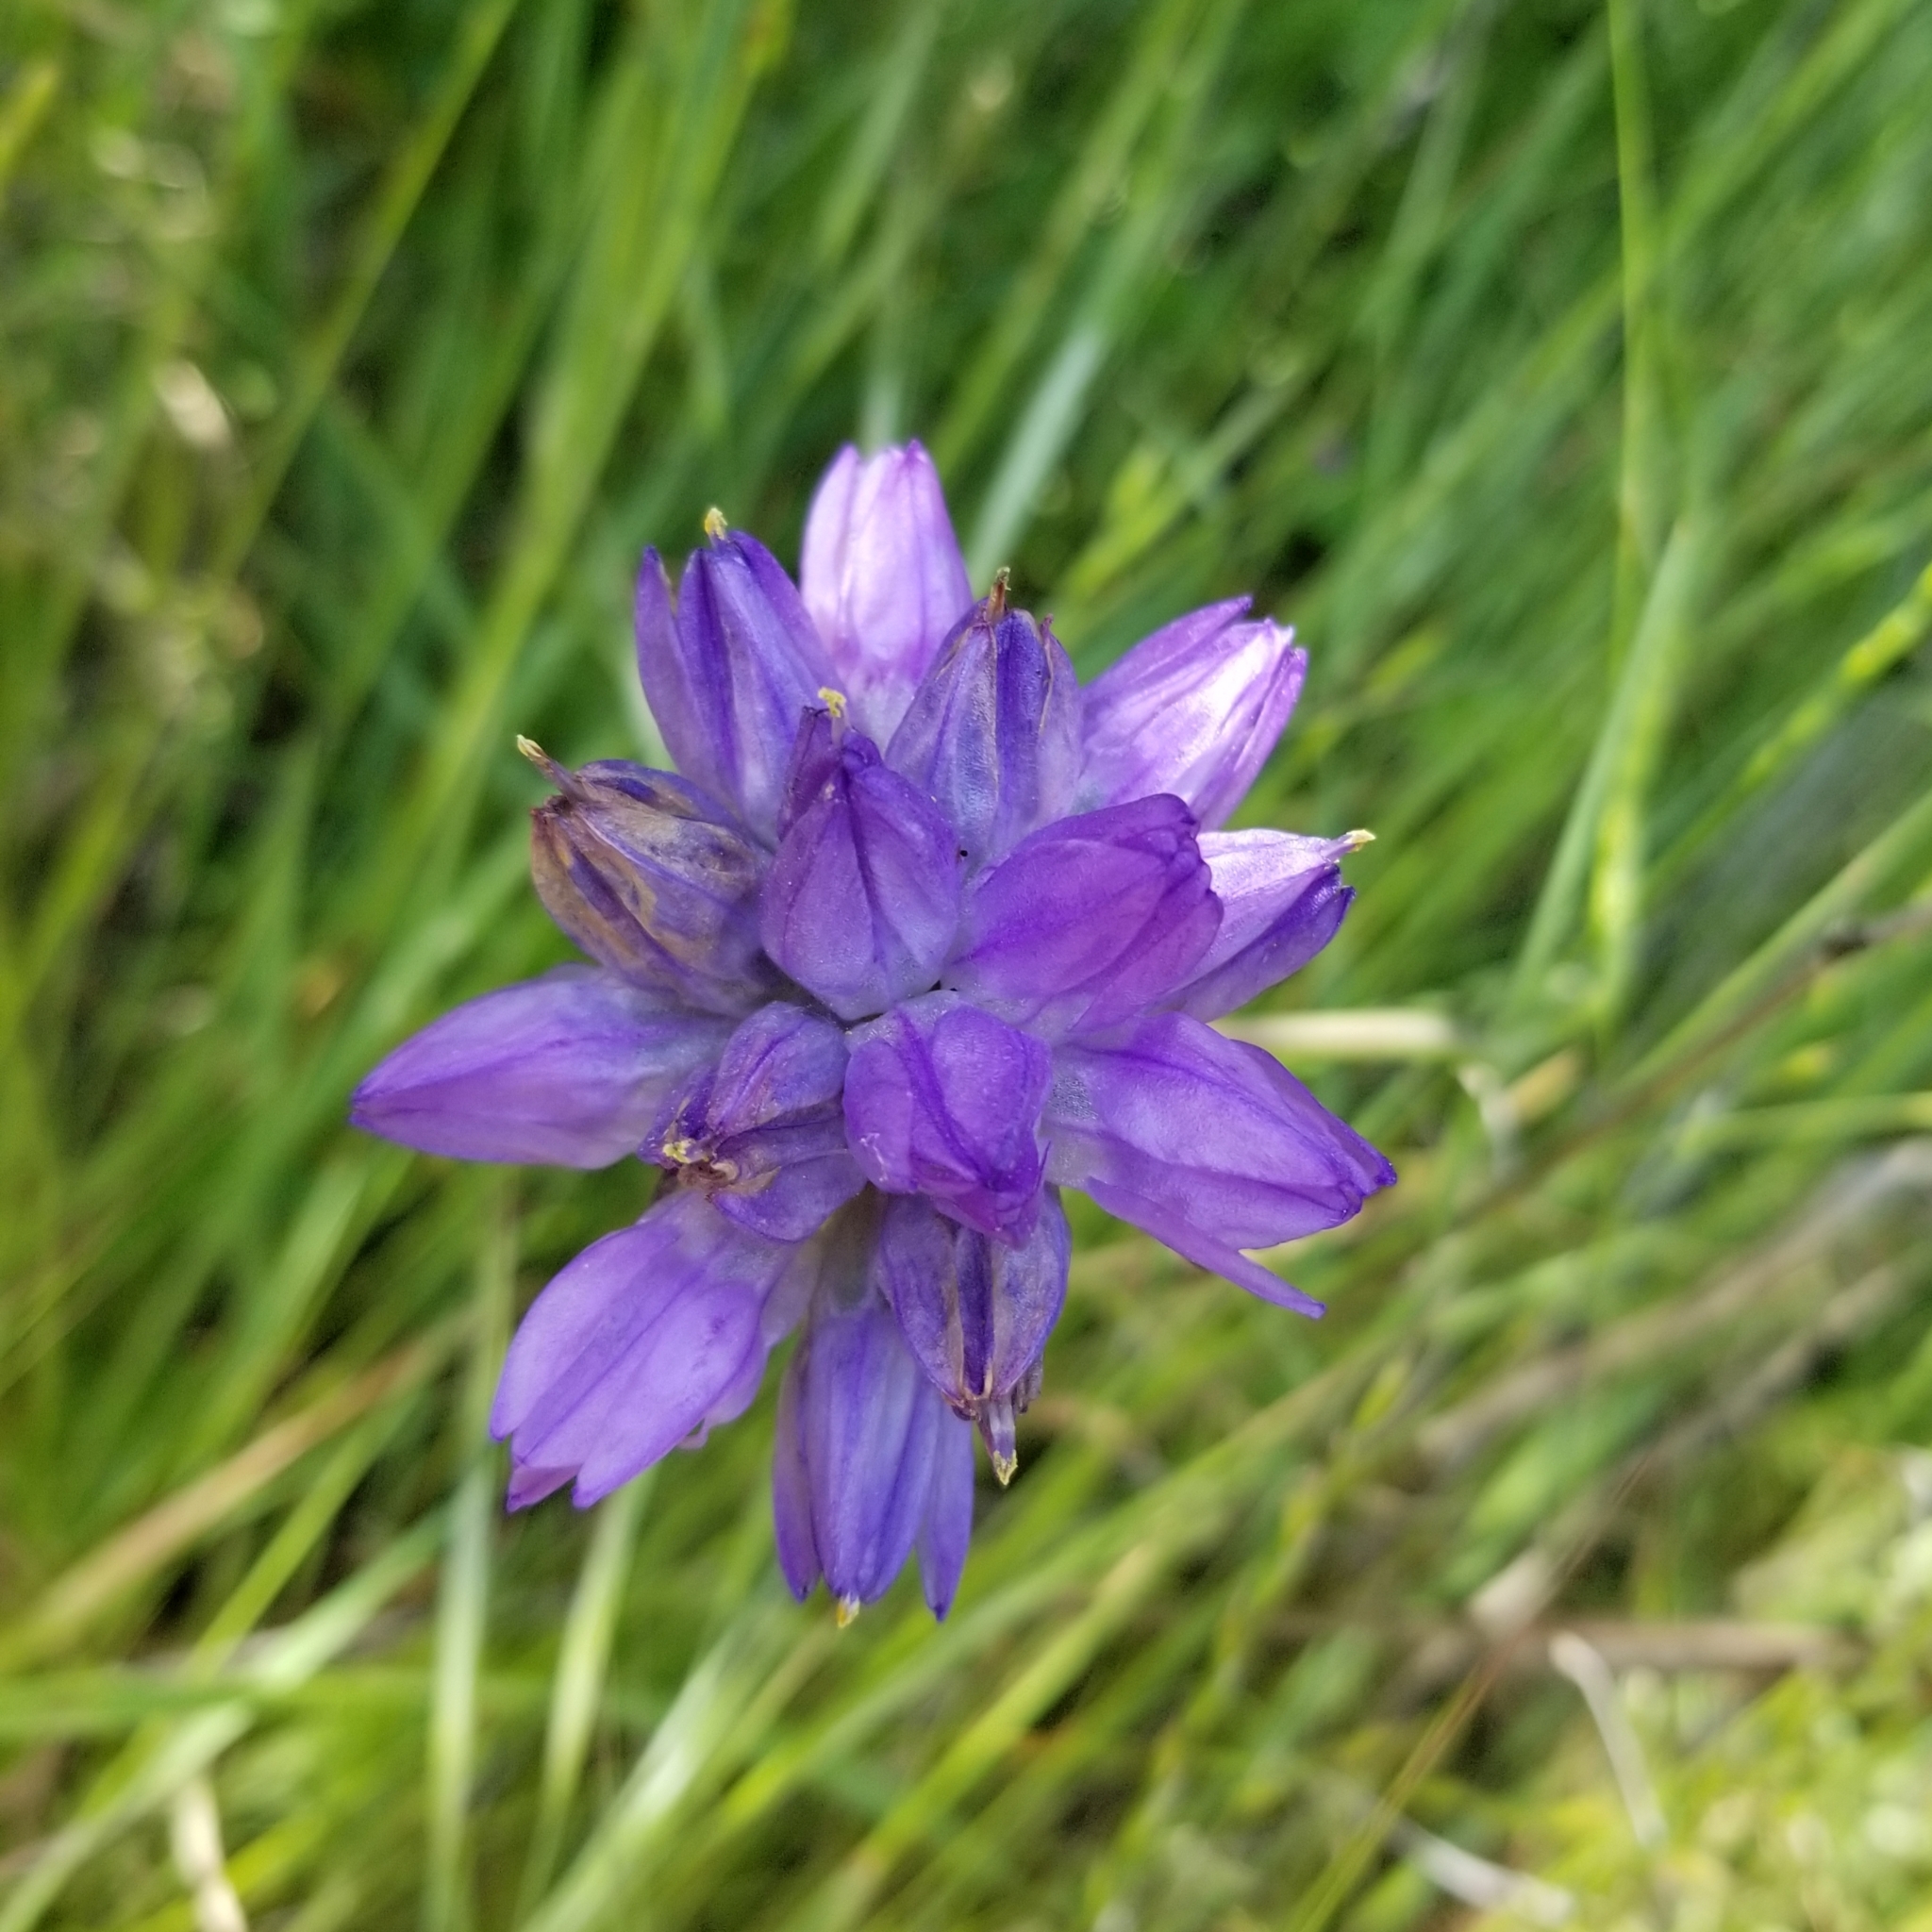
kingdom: Plantae
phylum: Tracheophyta
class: Liliopsida
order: Asparagales
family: Asparagaceae
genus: Dipterostemon
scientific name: Dipterostemon capitatus
